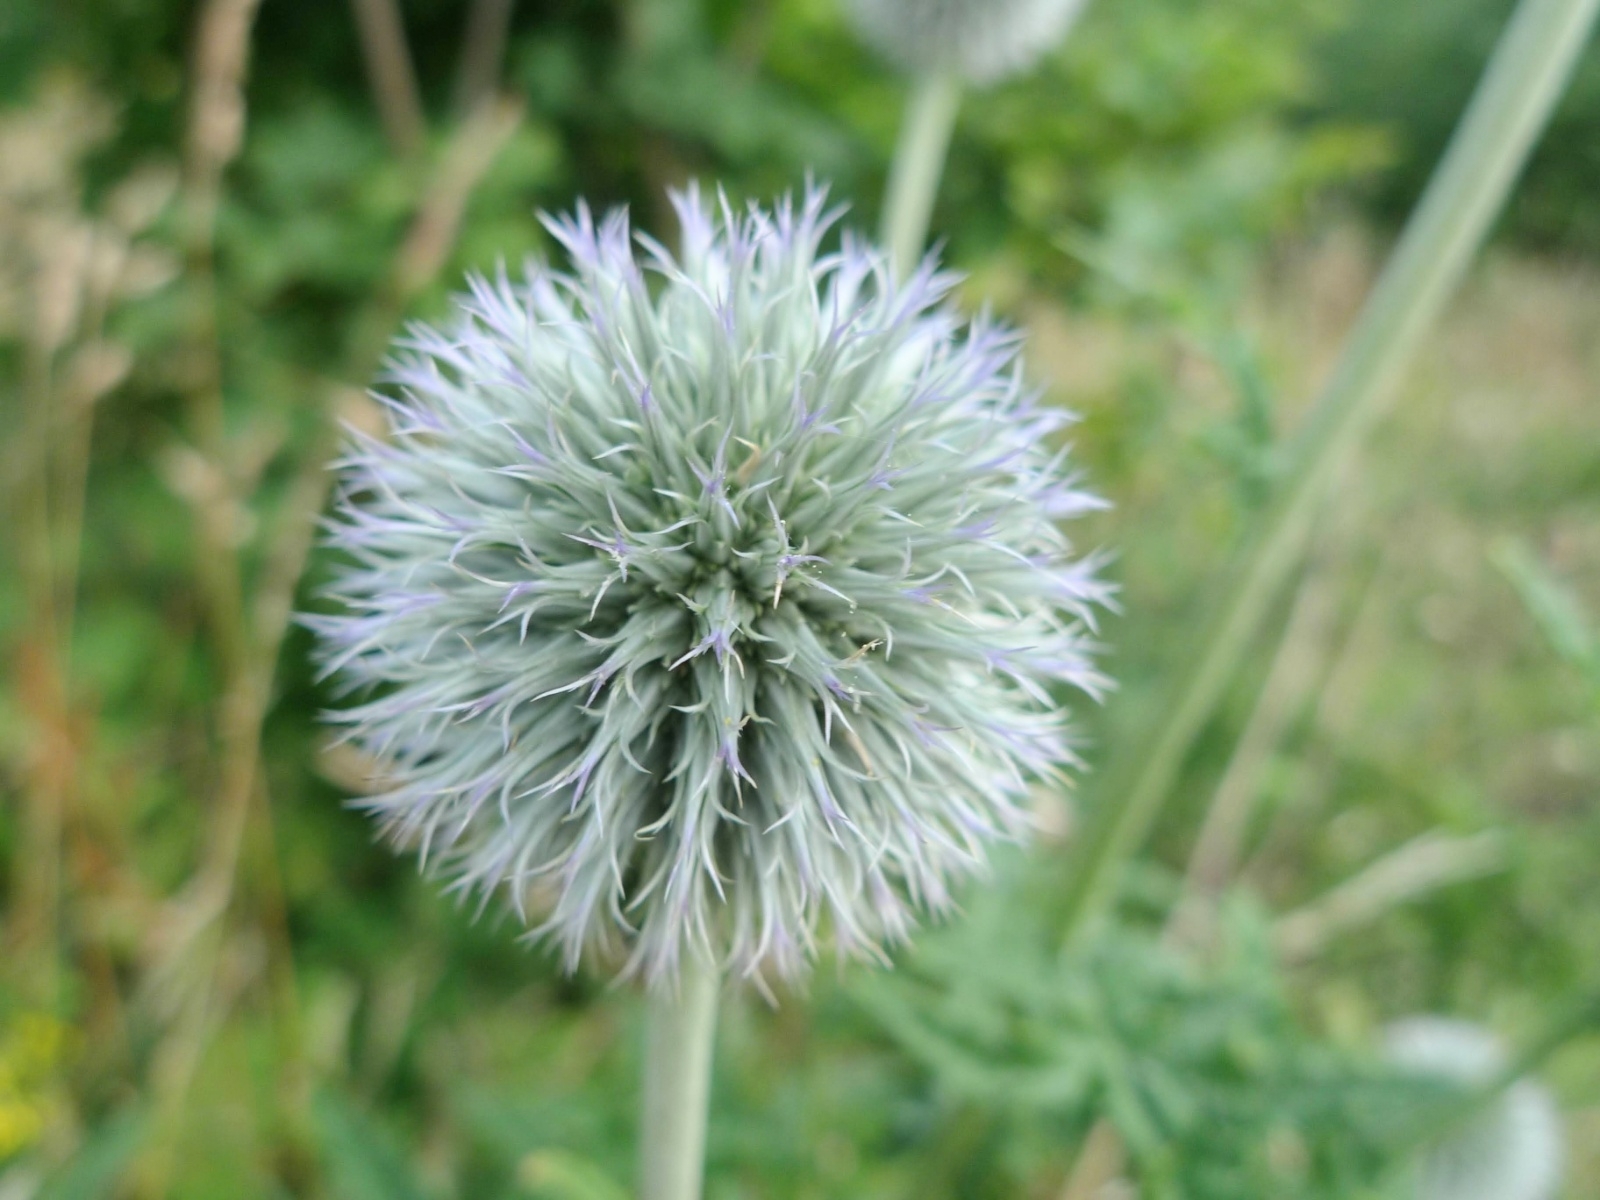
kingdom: Plantae
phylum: Tracheophyta
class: Magnoliopsida
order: Asterales
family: Asteraceae
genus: Echinops
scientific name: Echinops sphaerocephalus
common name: Glandular globe-thistle
